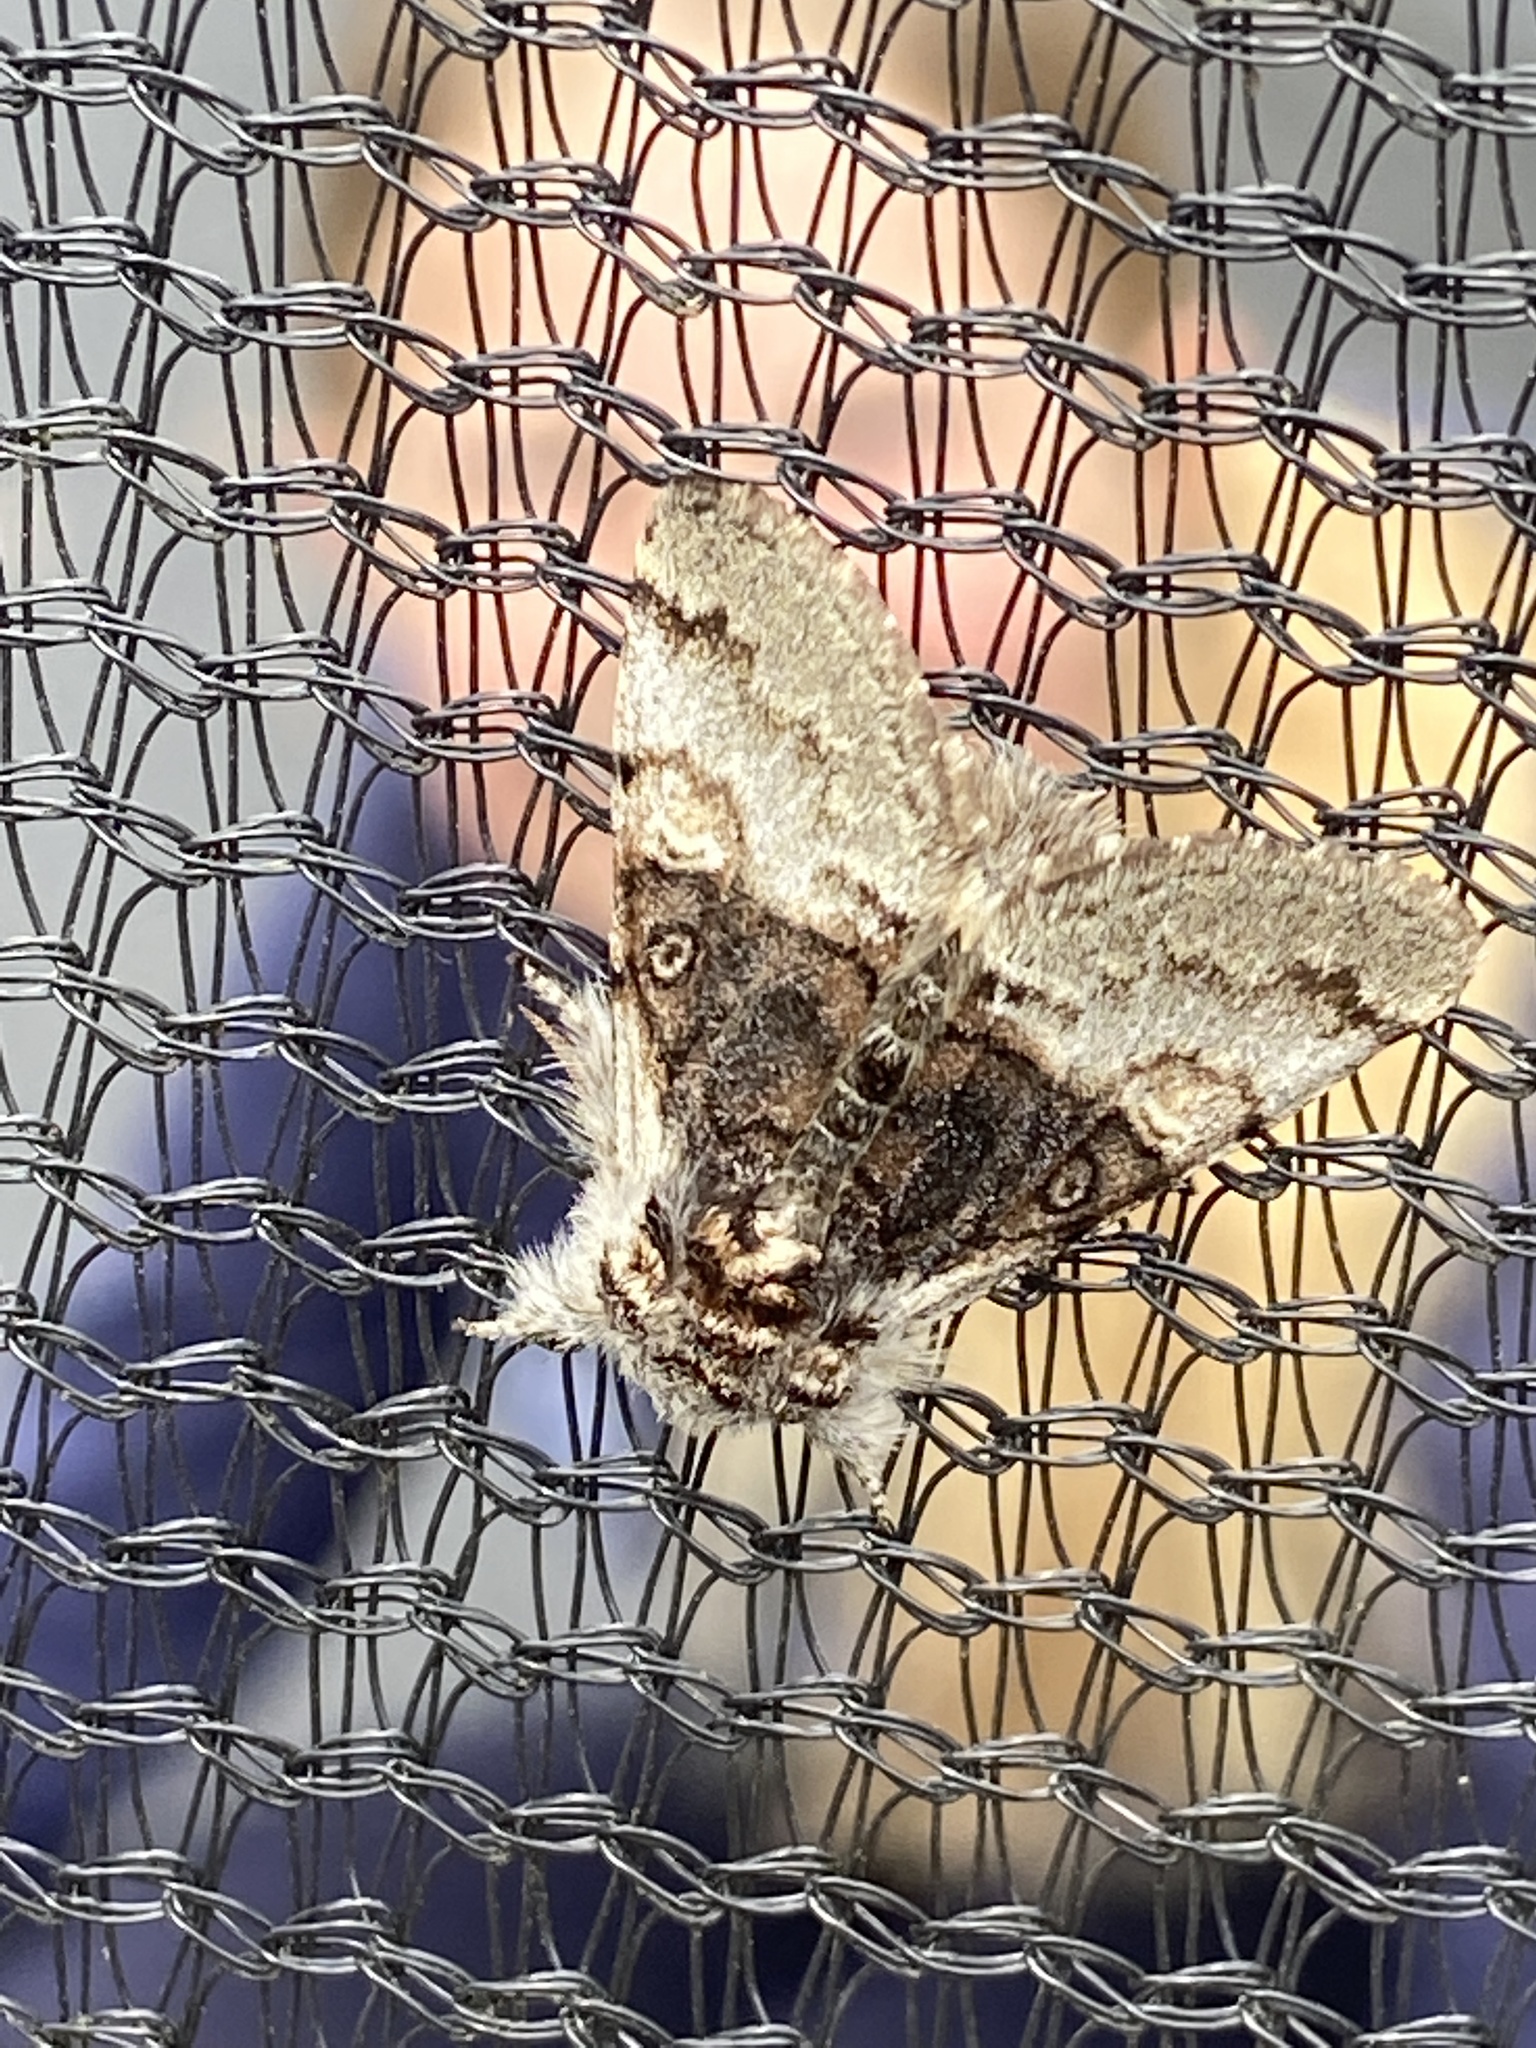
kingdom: Animalia
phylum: Arthropoda
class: Insecta
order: Lepidoptera
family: Noctuidae
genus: Colocasia
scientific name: Colocasia coryli
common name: Nut-tree tussock
